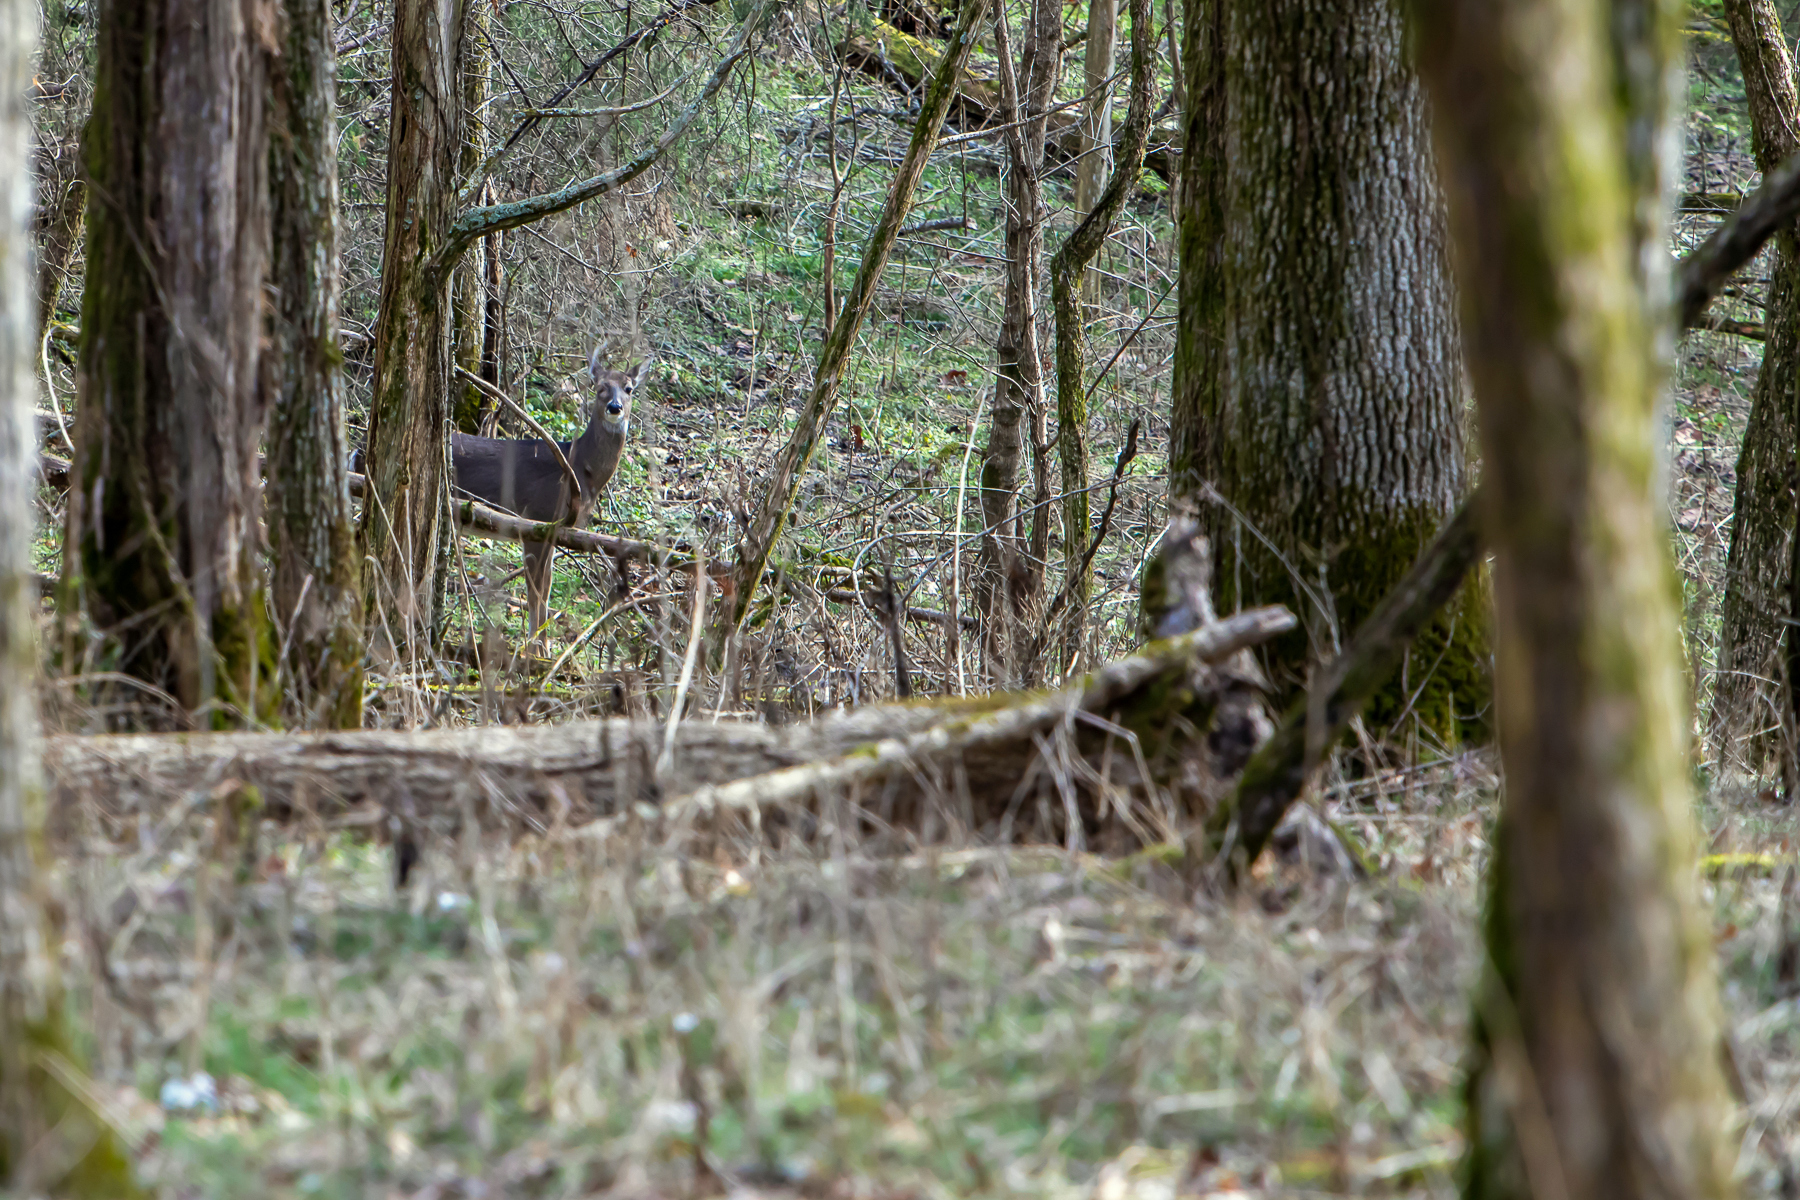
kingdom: Animalia
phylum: Chordata
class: Mammalia
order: Artiodactyla
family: Cervidae
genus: Odocoileus
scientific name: Odocoileus virginianus
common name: White-tailed deer
